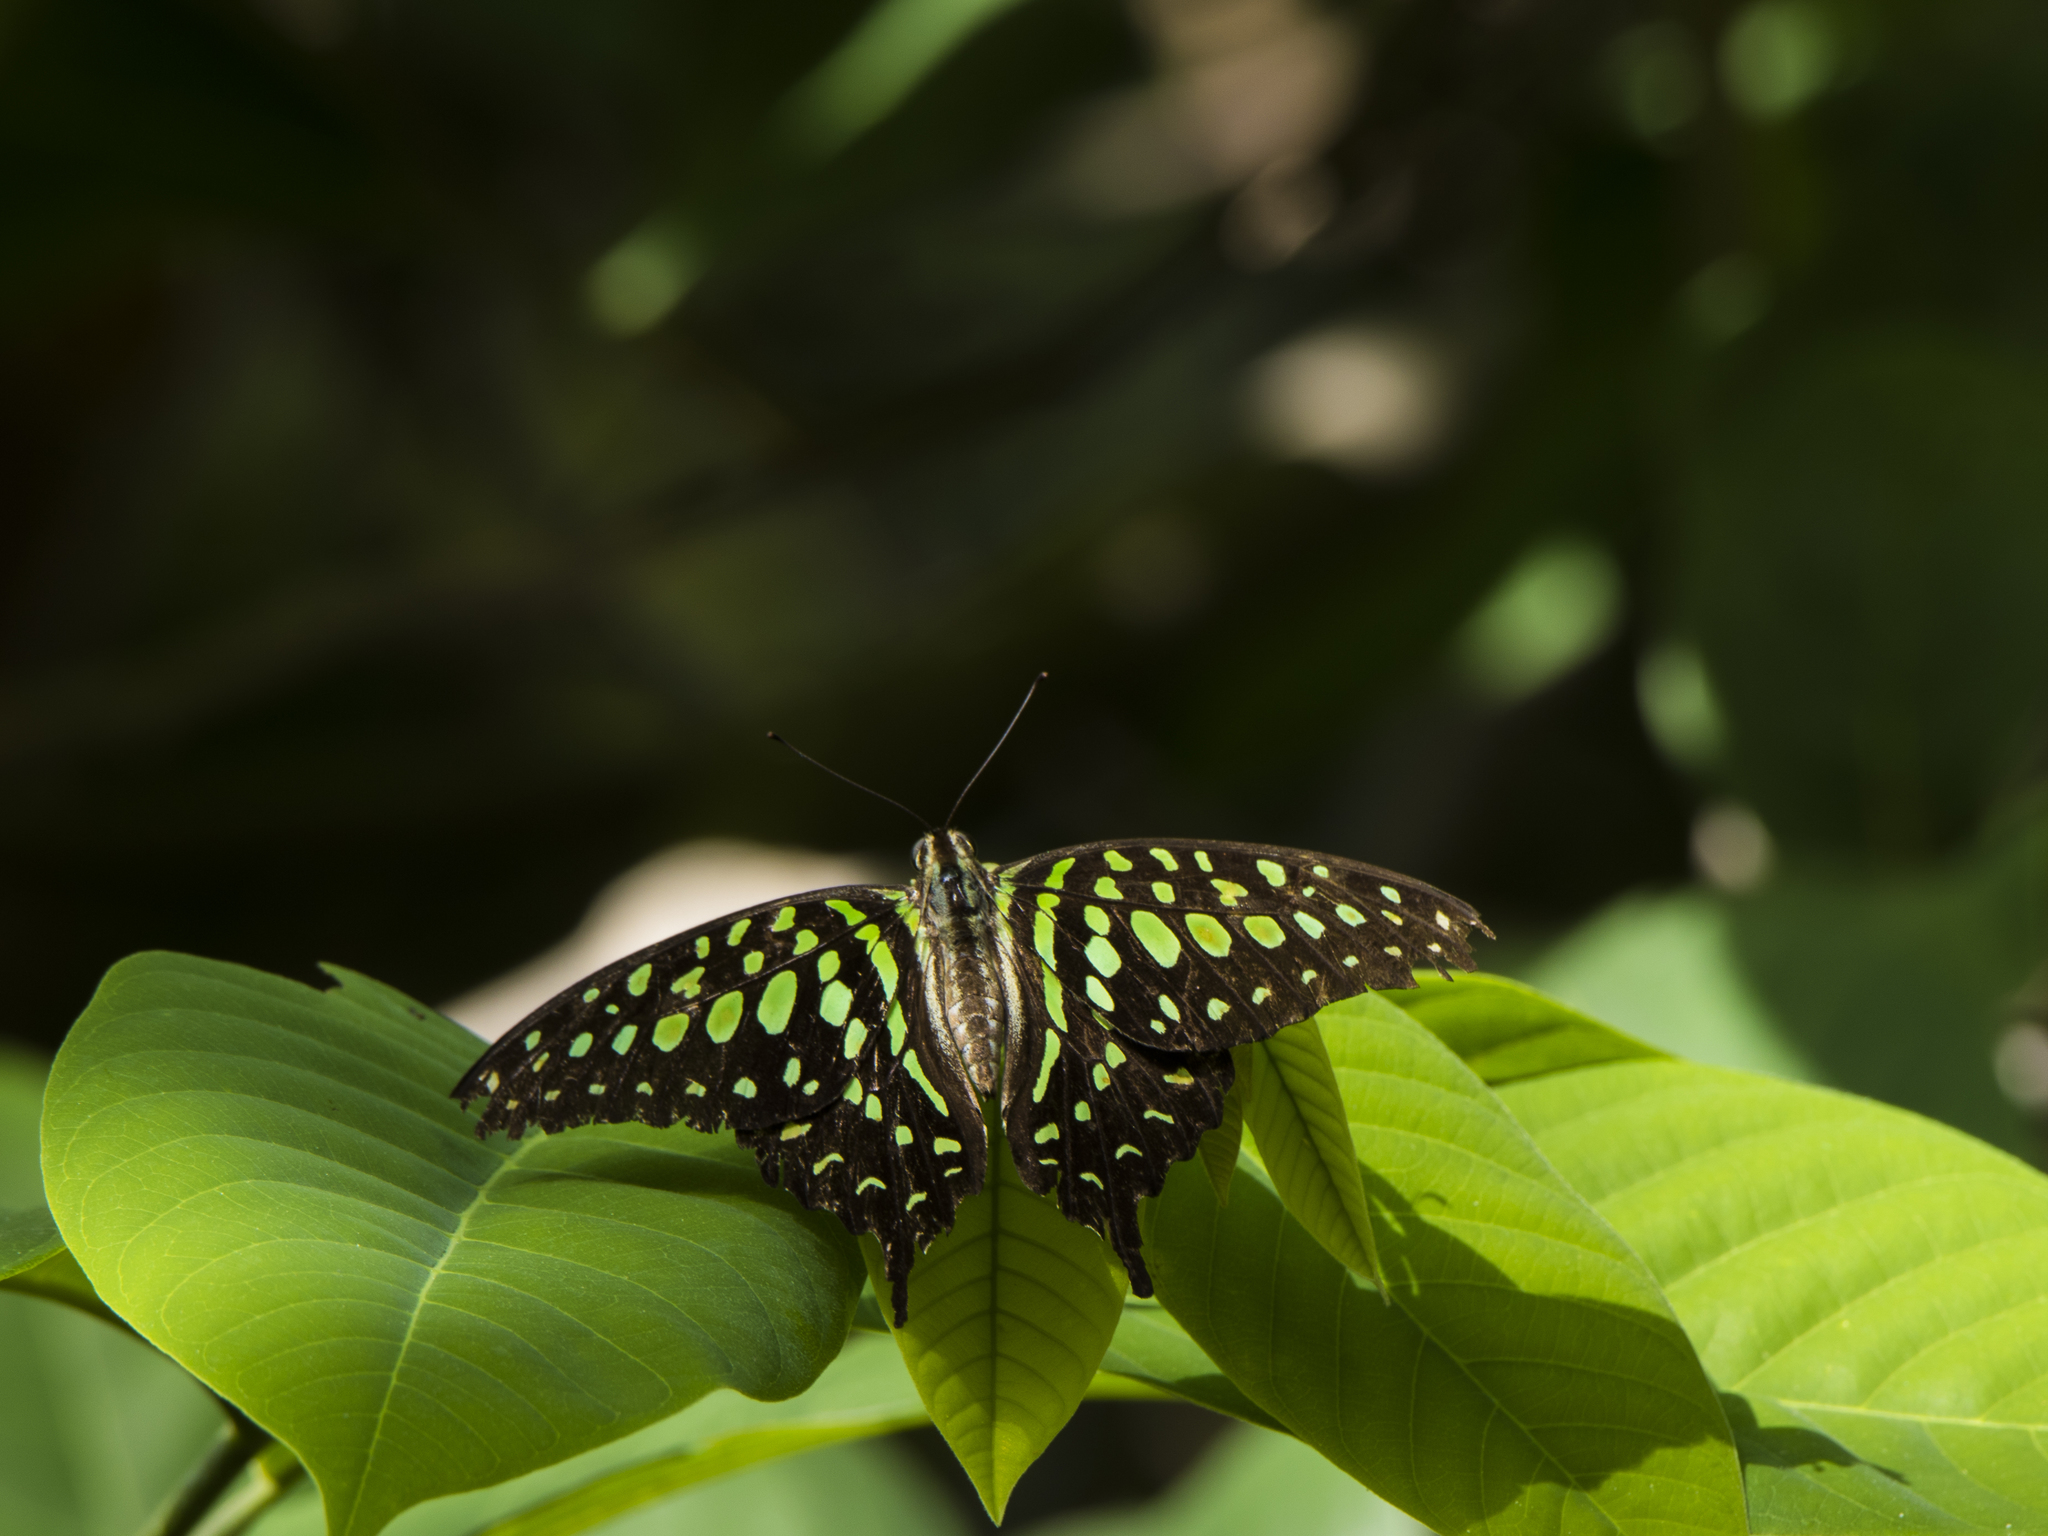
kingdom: Animalia
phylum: Arthropoda
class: Insecta
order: Lepidoptera
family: Papilionidae
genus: Graphium
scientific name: Graphium agamemnon
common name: Tailed jay
